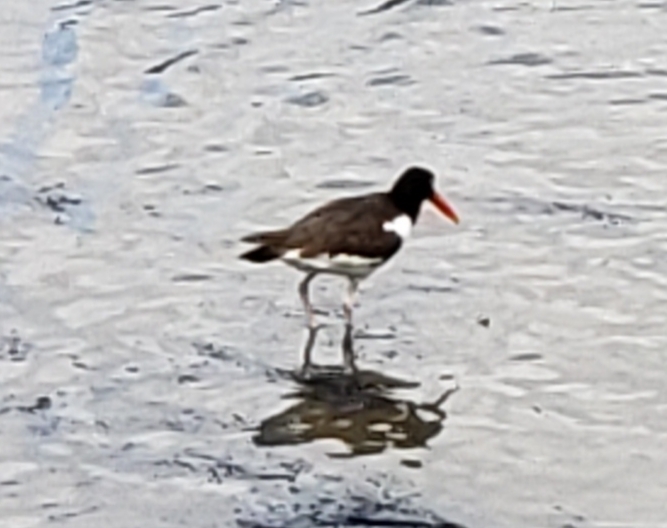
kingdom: Animalia
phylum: Chordata
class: Aves
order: Charadriiformes
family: Haematopodidae
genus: Haematopus
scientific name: Haematopus palliatus
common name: American oystercatcher
